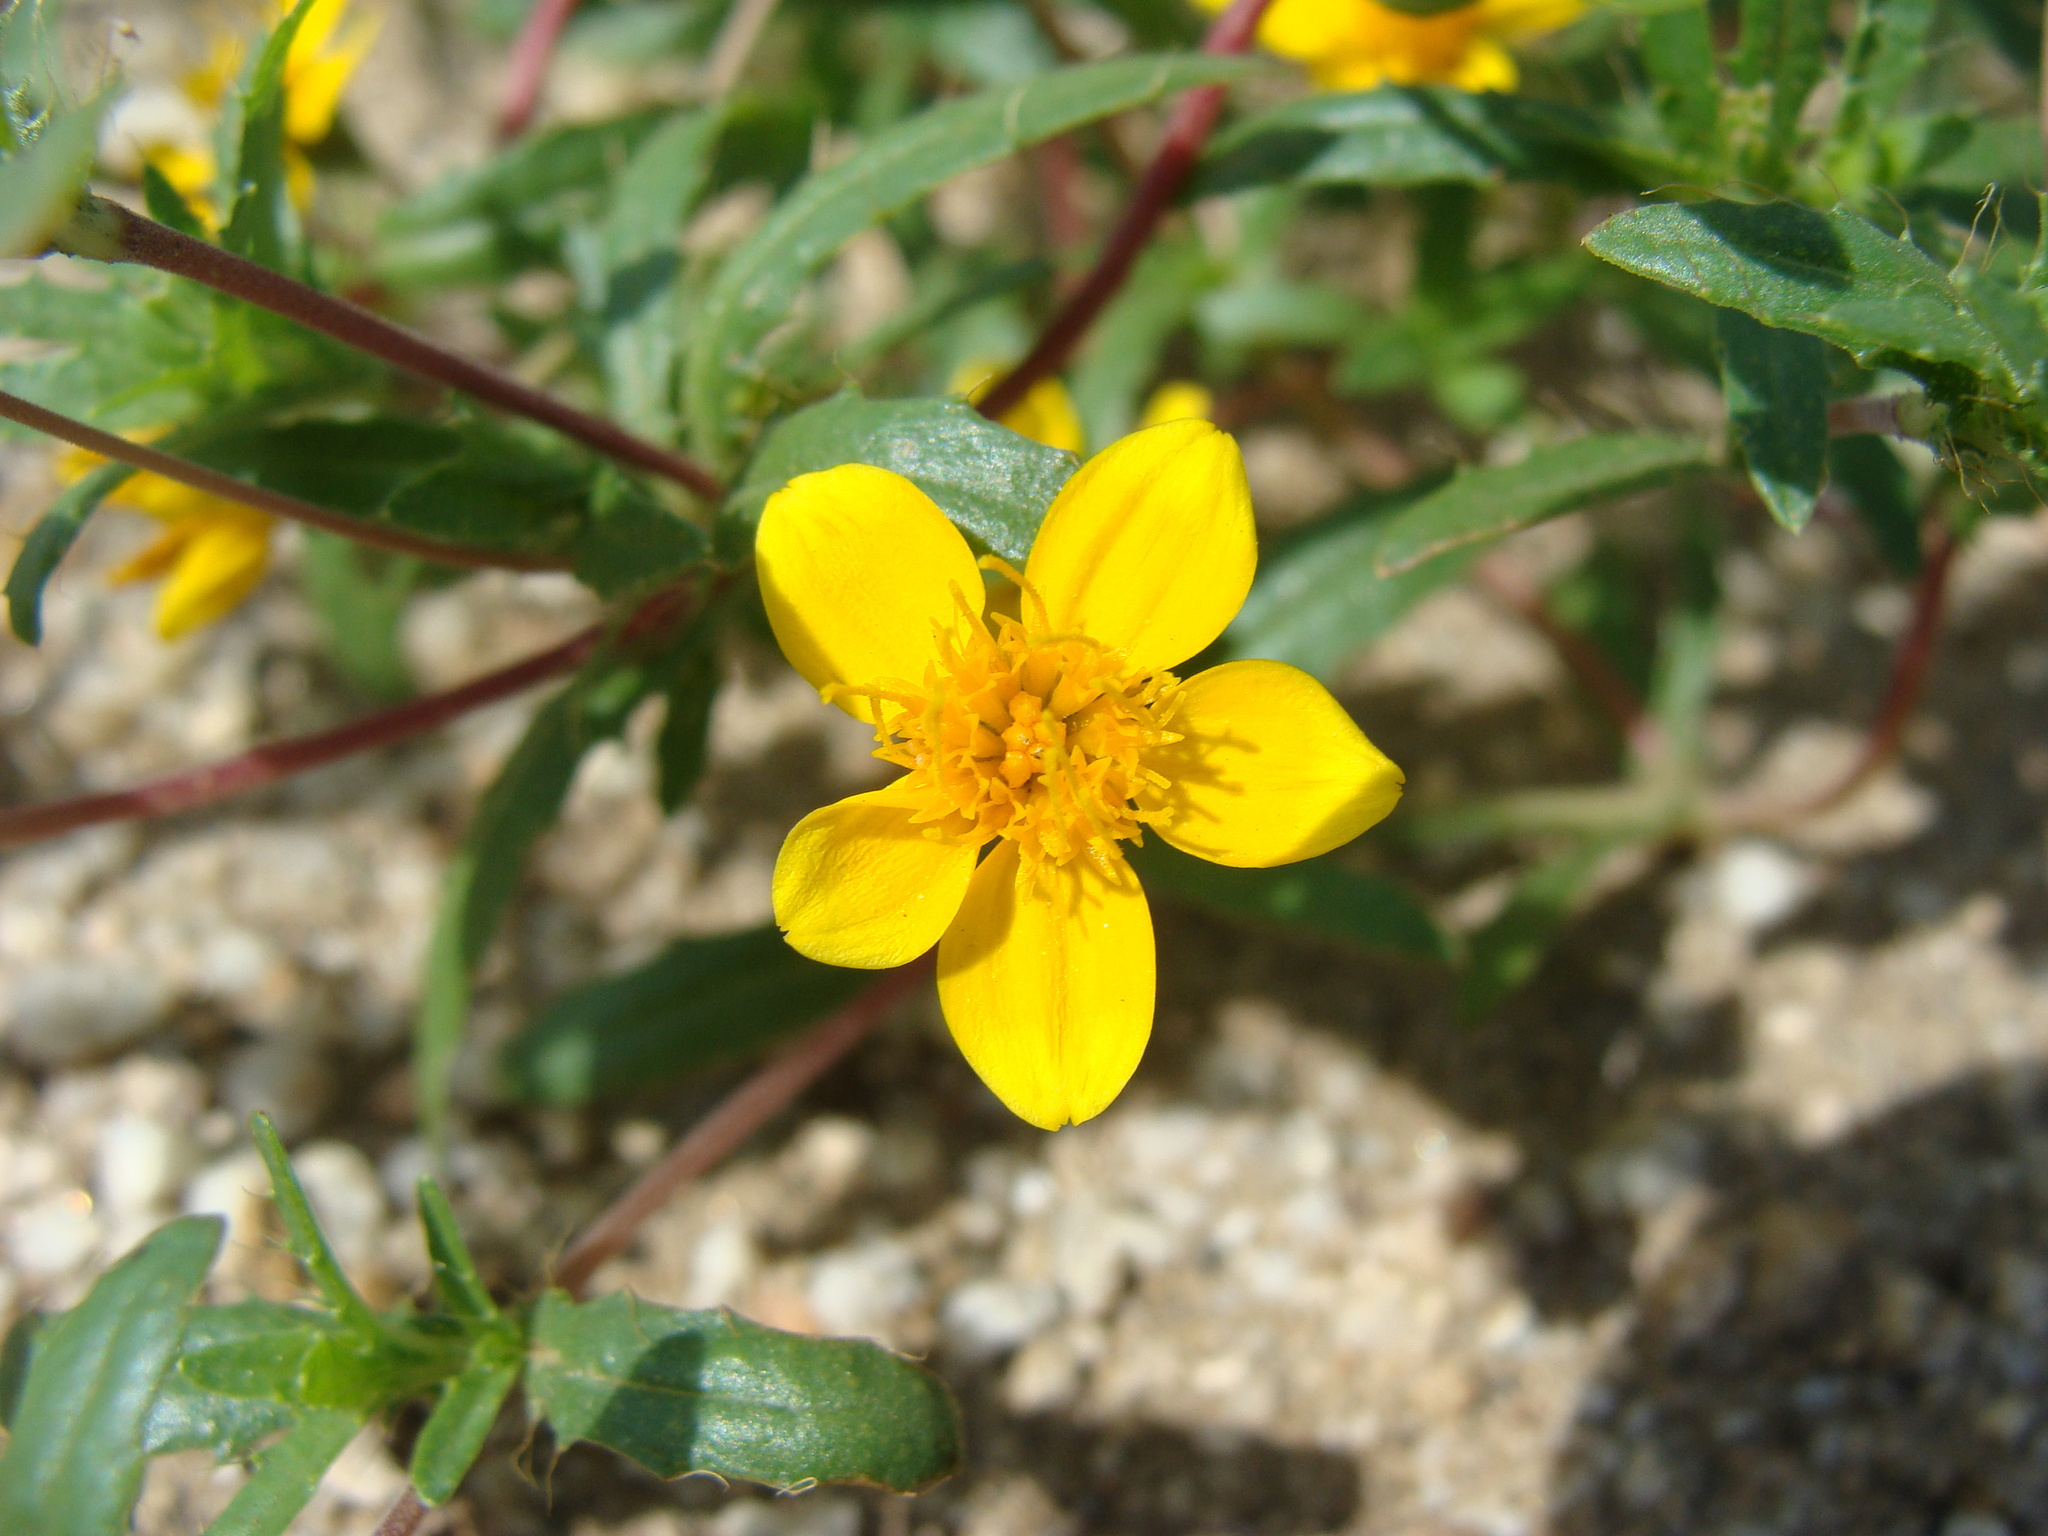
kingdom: Plantae
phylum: Tracheophyta
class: Magnoliopsida
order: Asterales
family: Asteraceae
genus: Pectis
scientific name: Pectis multiseta
